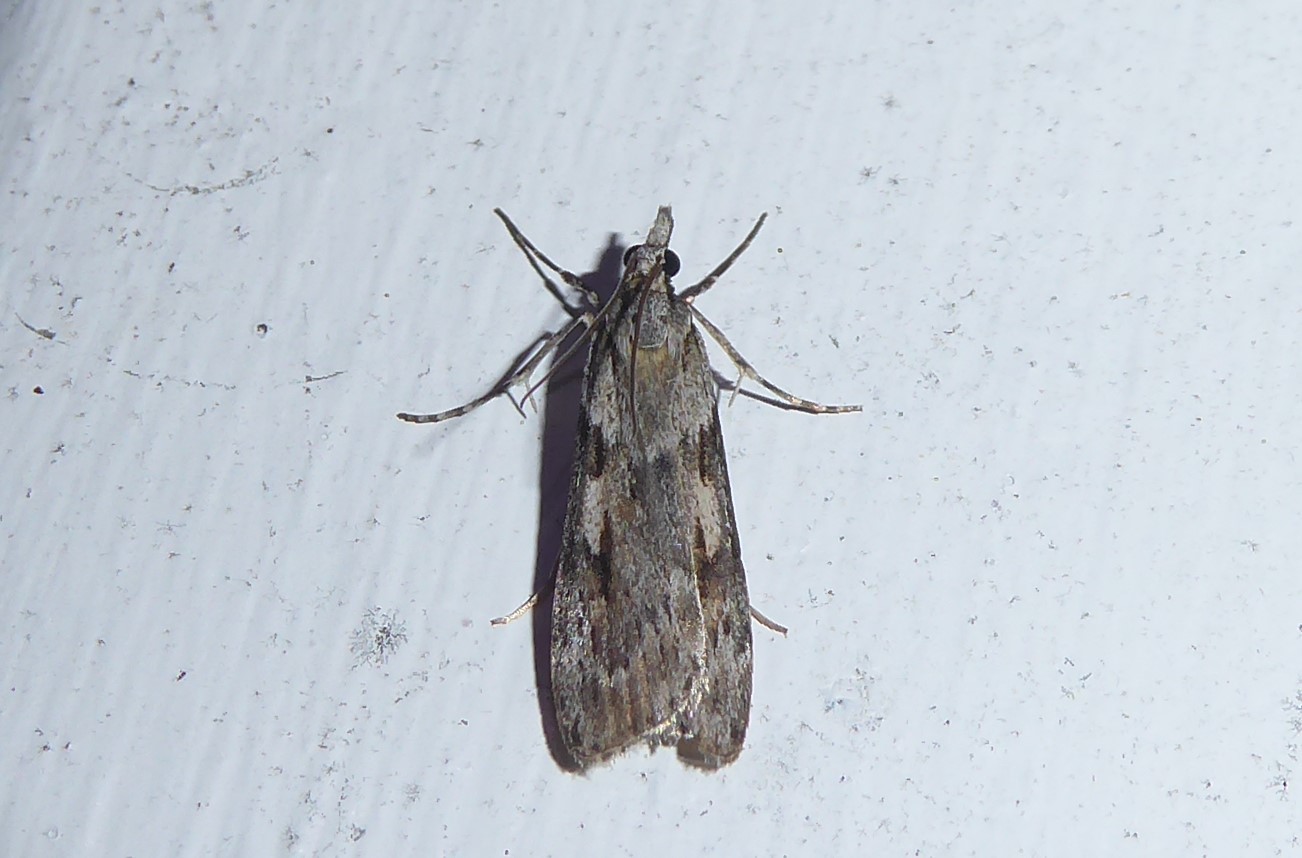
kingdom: Animalia
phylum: Arthropoda
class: Insecta
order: Lepidoptera
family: Crambidae
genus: Scoparia
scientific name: Scoparia halopis
